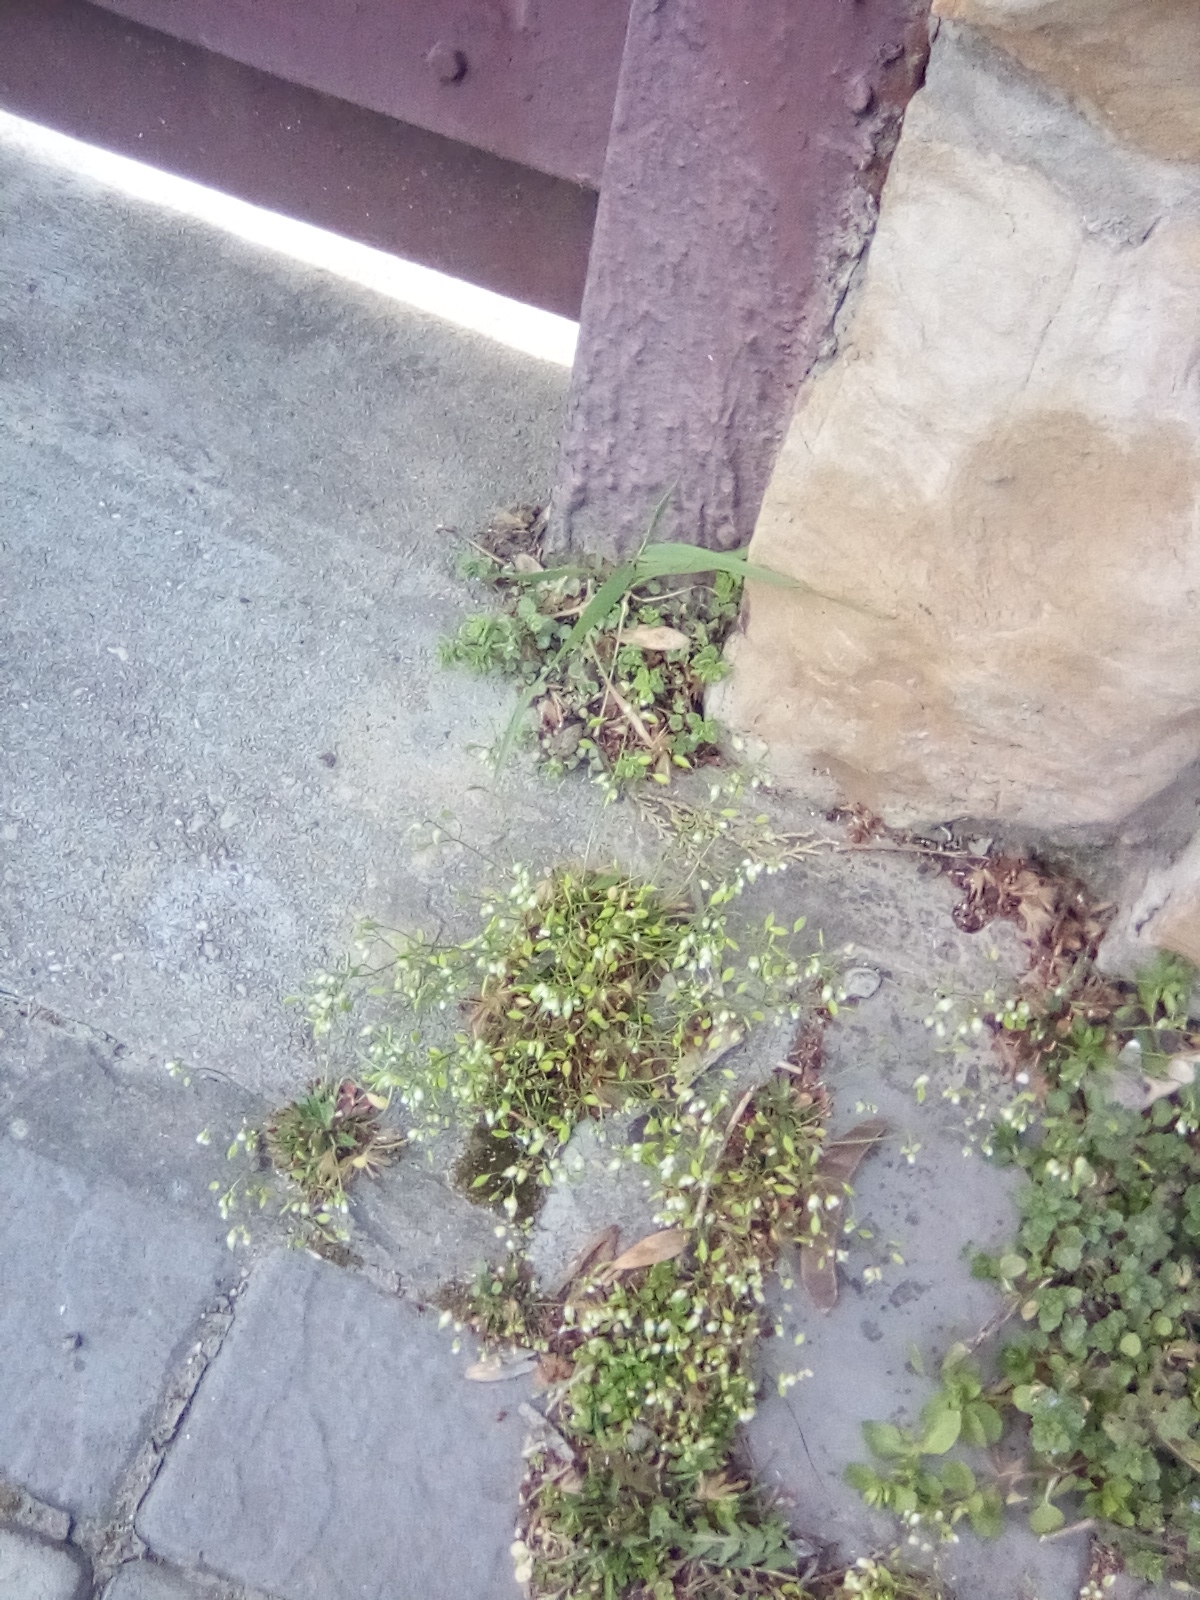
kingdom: Plantae
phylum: Tracheophyta
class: Magnoliopsida
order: Brassicales
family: Brassicaceae
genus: Draba
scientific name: Draba verna
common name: Spring draba
